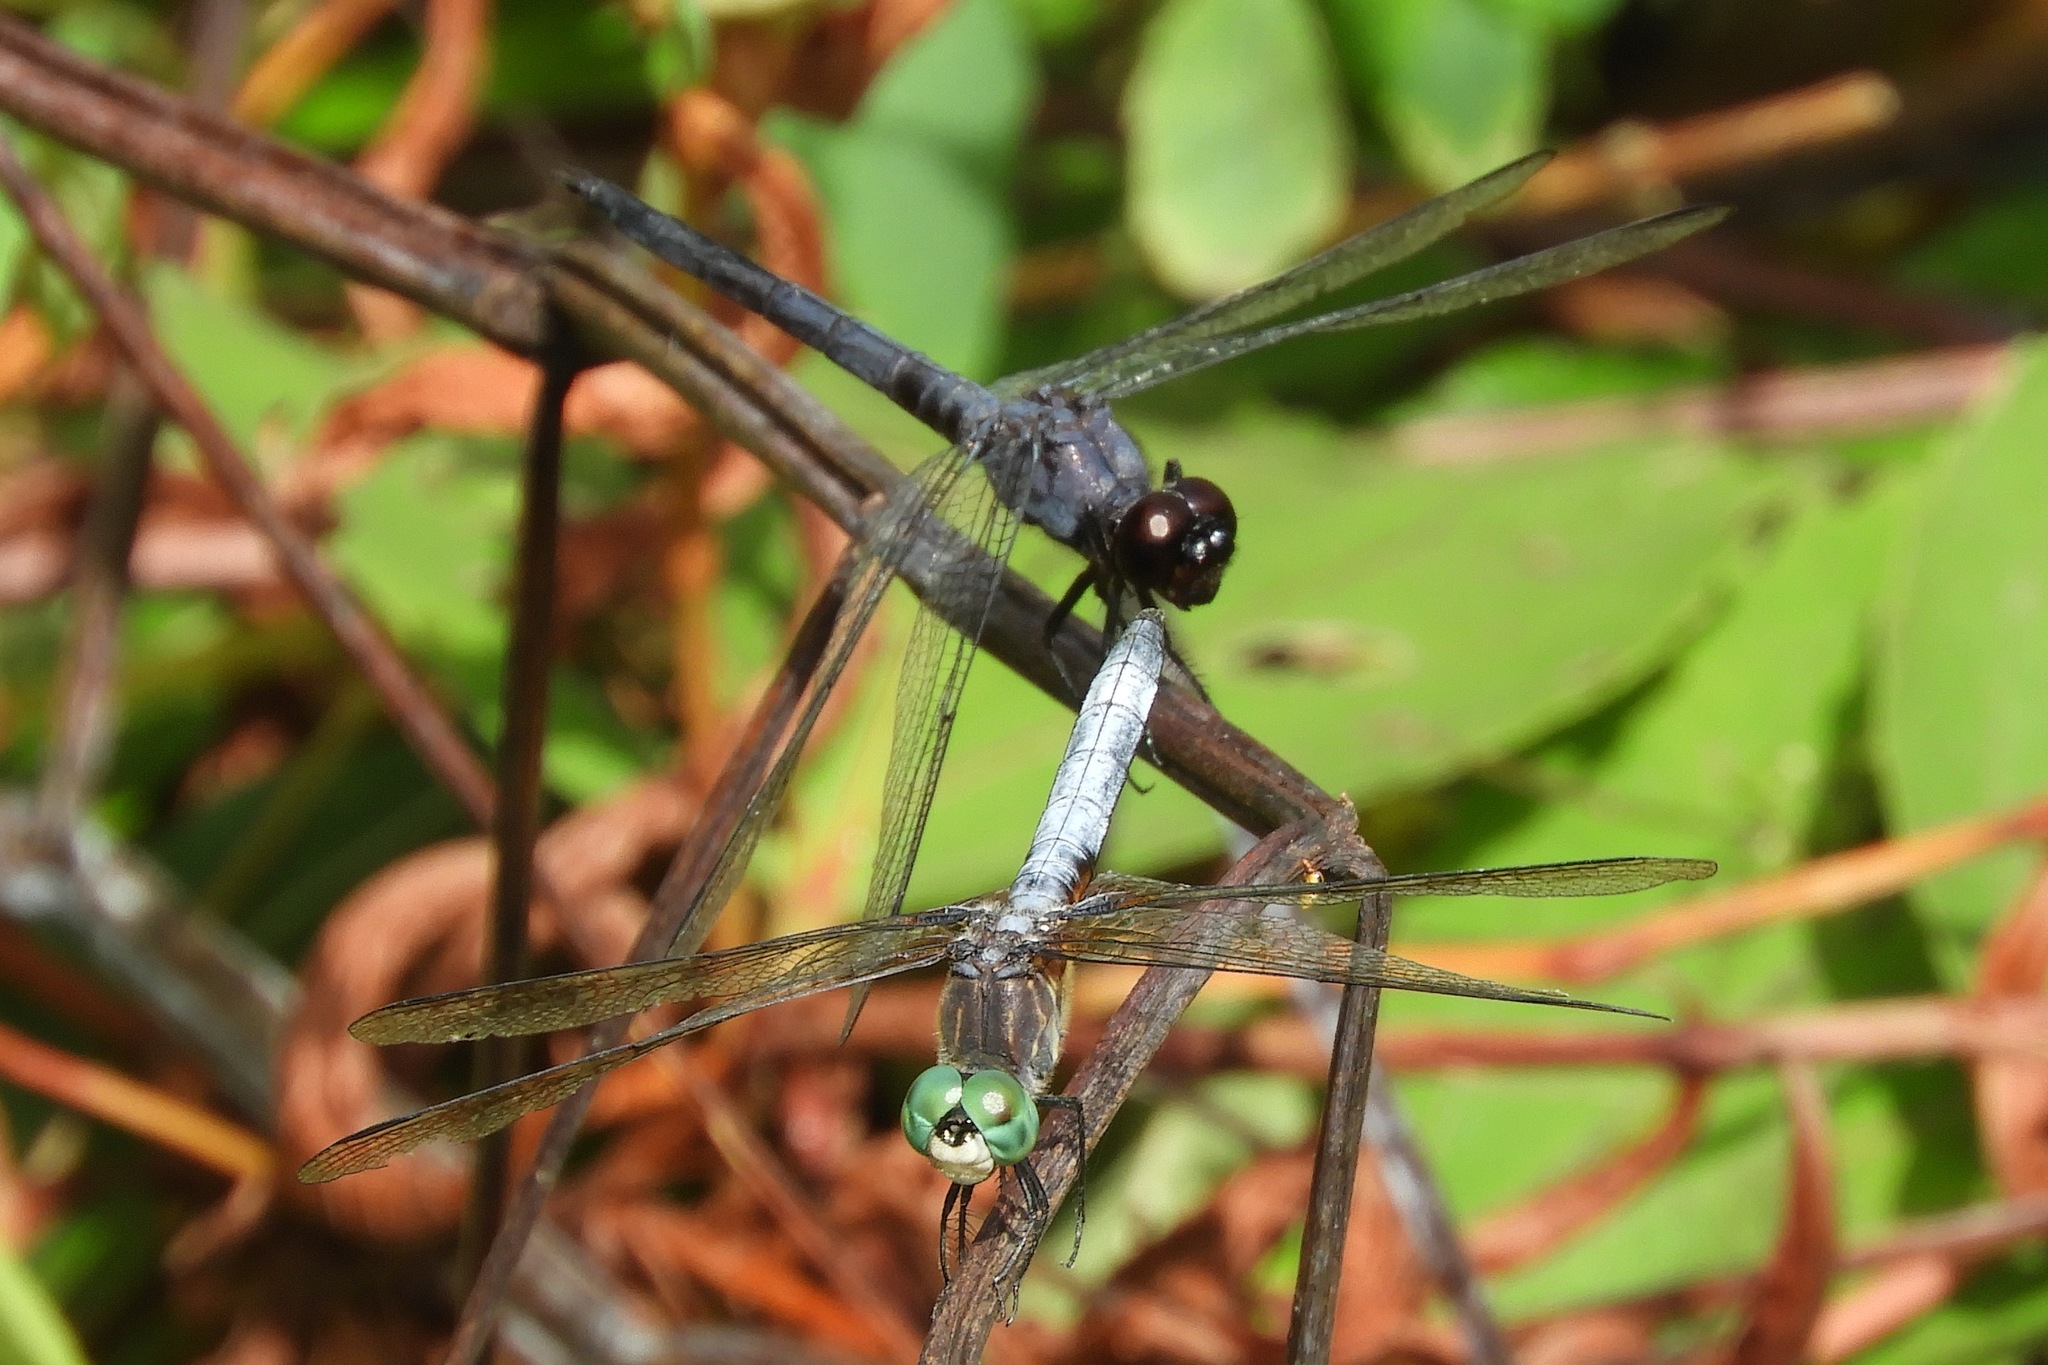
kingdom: Animalia
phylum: Arthropoda
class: Insecta
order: Odonata
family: Libellulidae
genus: Pachydiplax
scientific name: Pachydiplax longipennis
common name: Blue dasher
